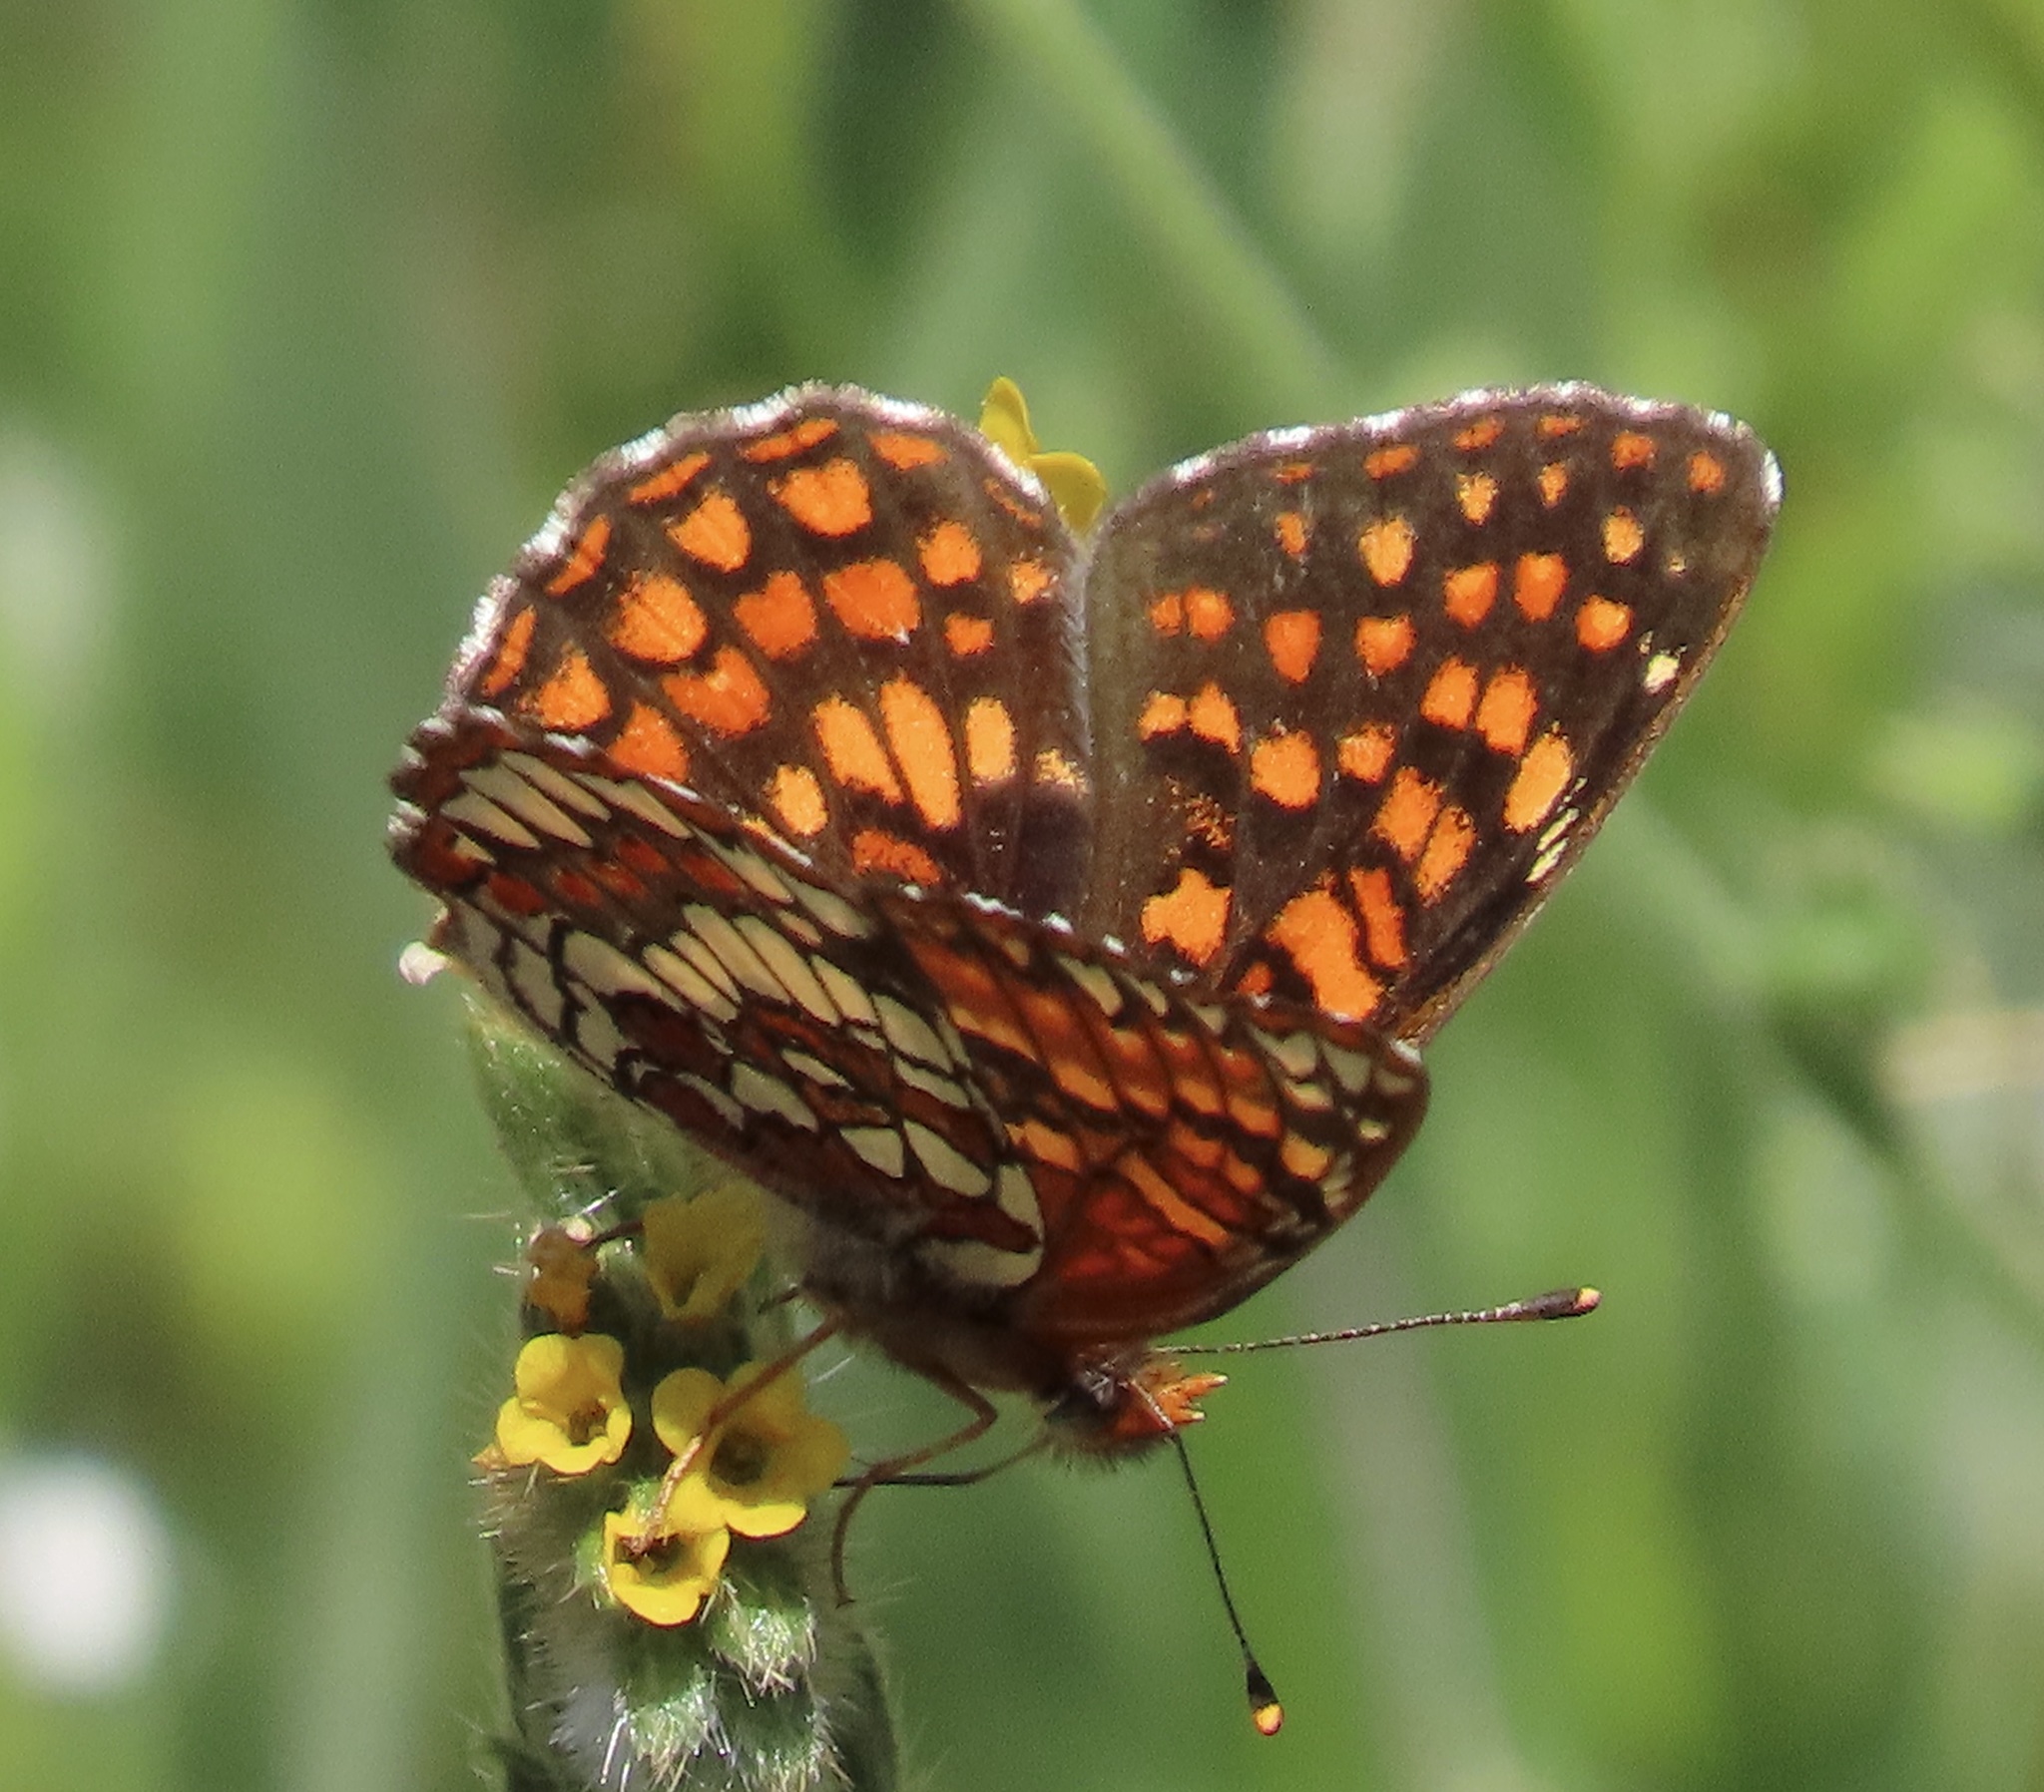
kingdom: Animalia
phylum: Arthropoda
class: Insecta
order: Lepidoptera
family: Nymphalidae
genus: Chlosyne
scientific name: Chlosyne palla
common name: Northern checkerspot
